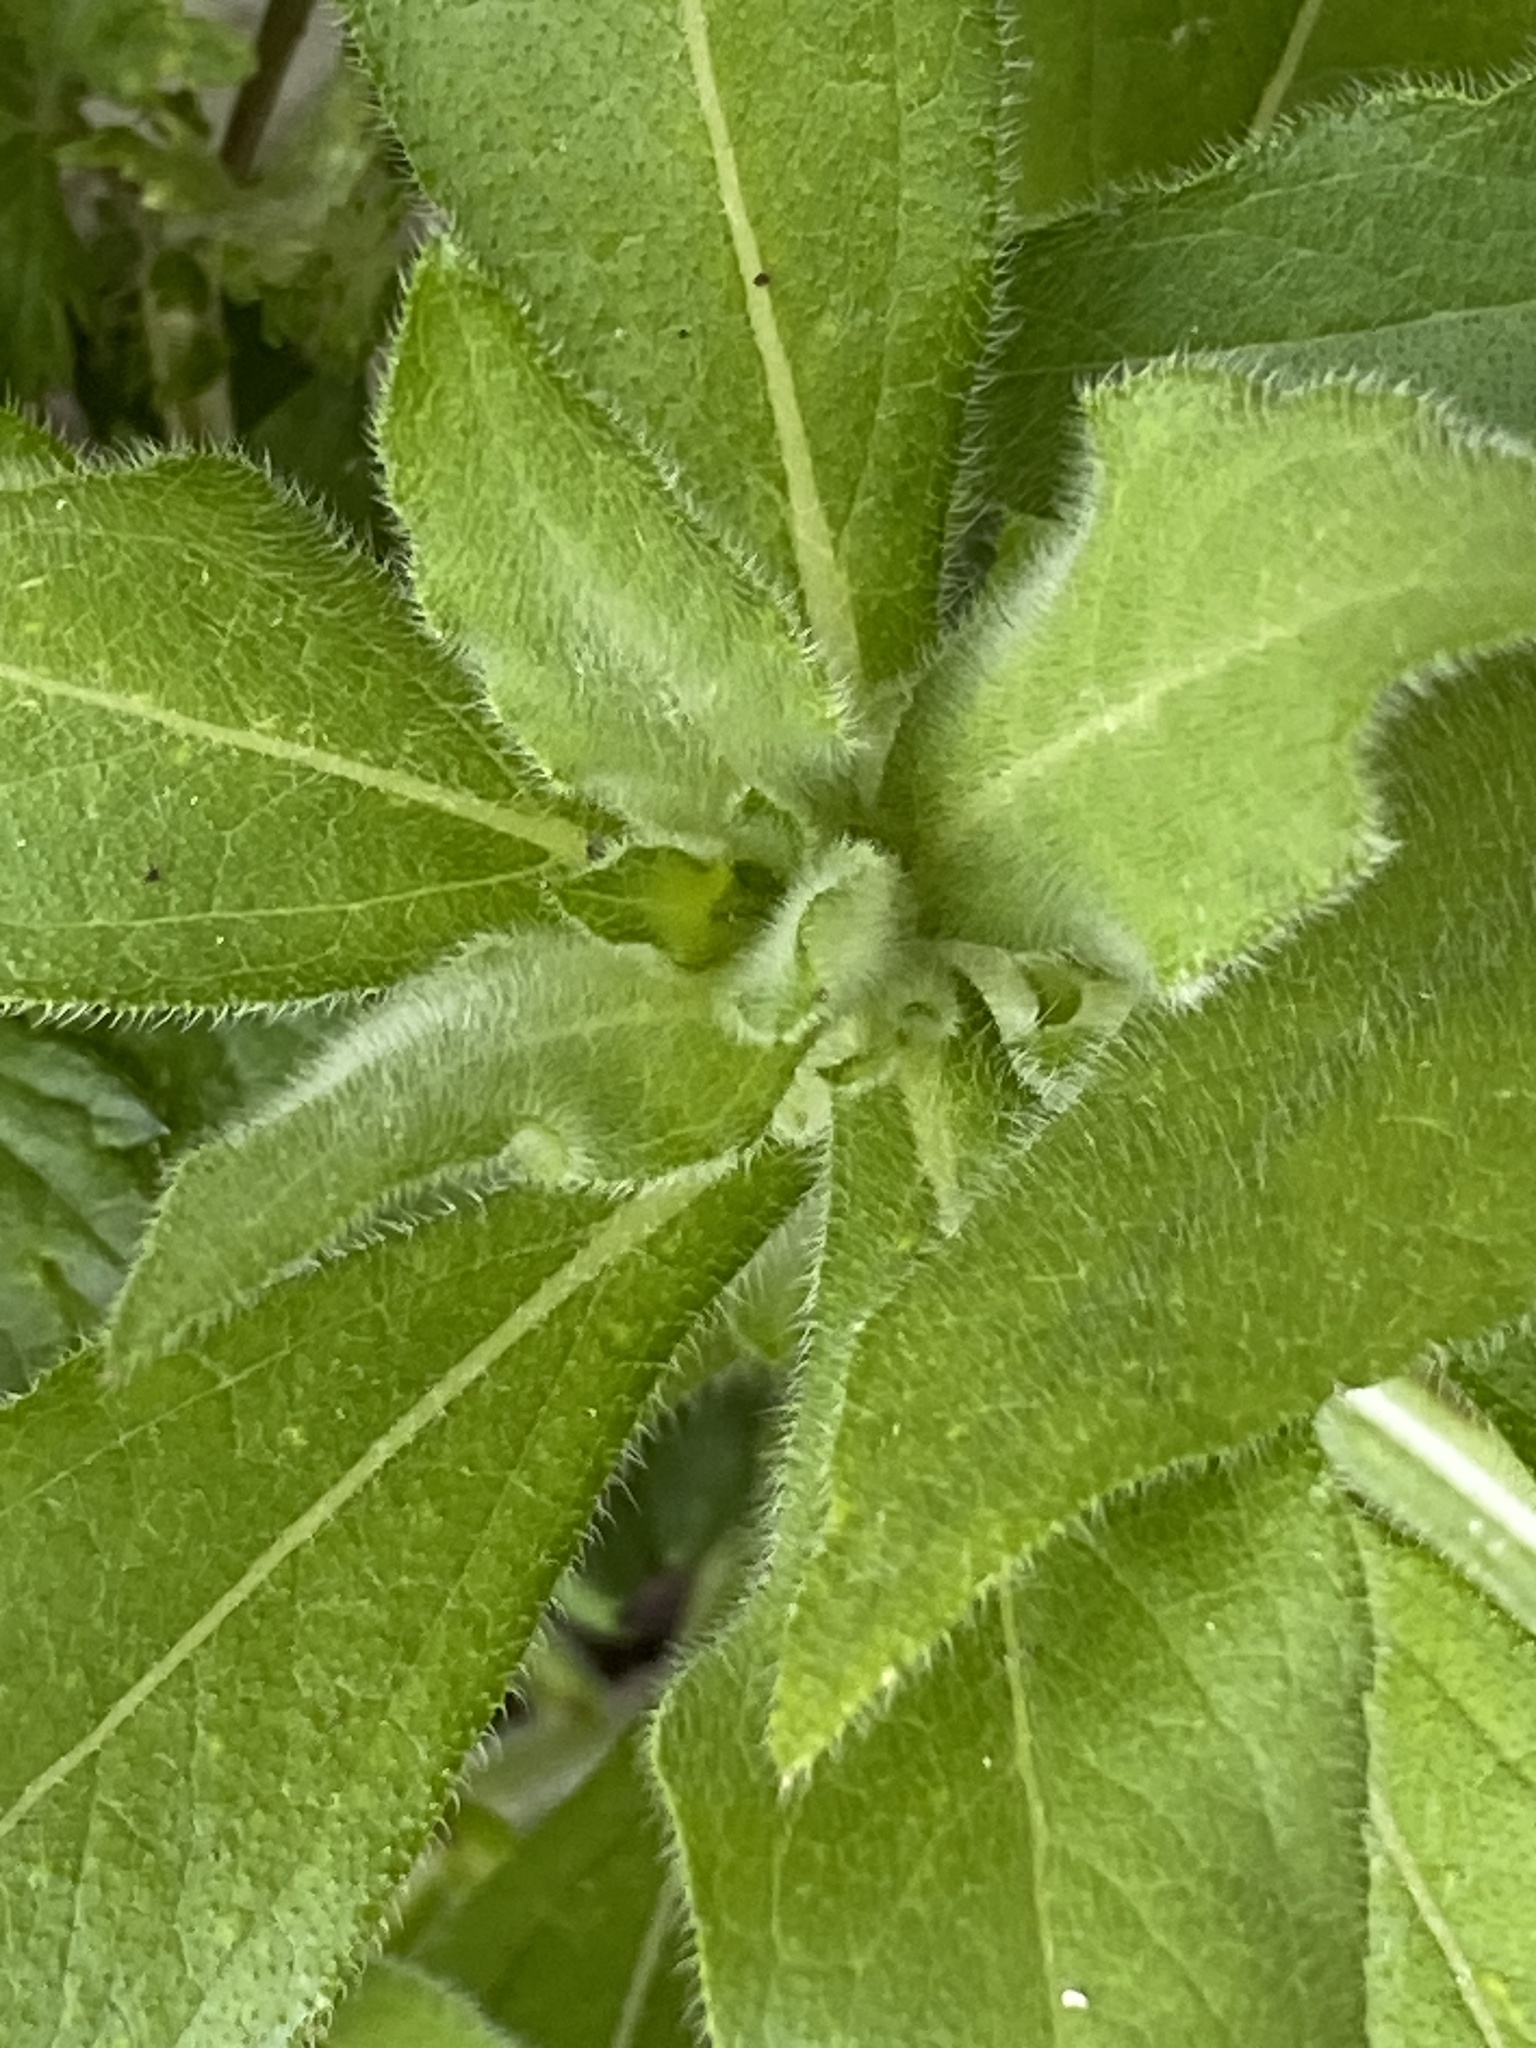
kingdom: Plantae
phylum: Tracheophyta
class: Magnoliopsida
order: Asterales
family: Asteraceae
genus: Rudbeckia
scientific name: Rudbeckia hirta
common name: Black-eyed-susan
